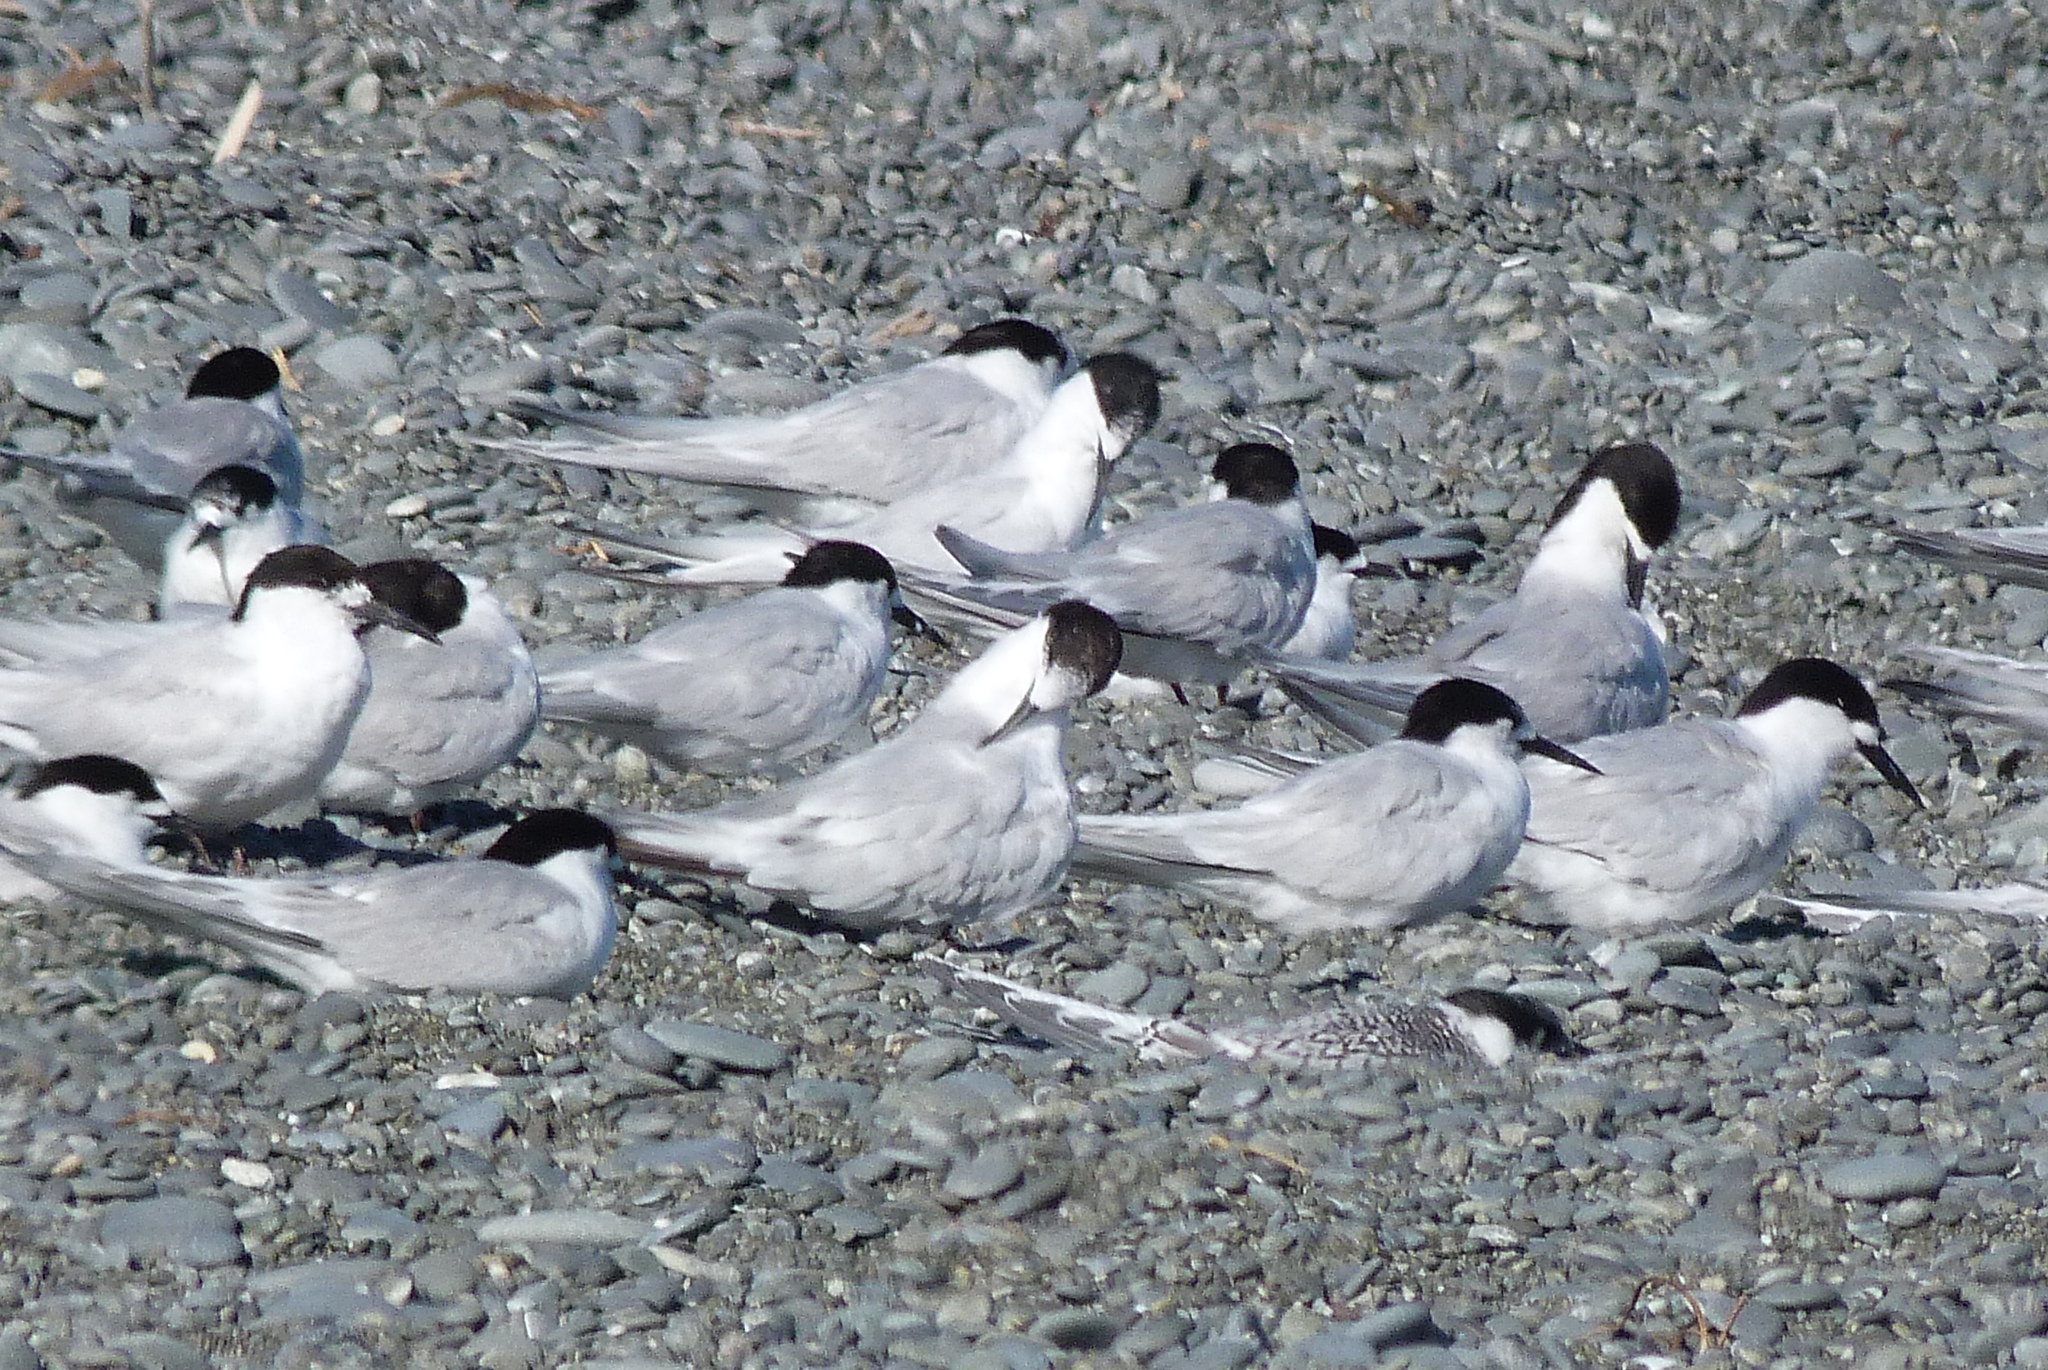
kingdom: Animalia
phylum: Chordata
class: Aves
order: Charadriiformes
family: Laridae
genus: Sterna
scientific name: Sterna striata
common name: White-fronted tern
